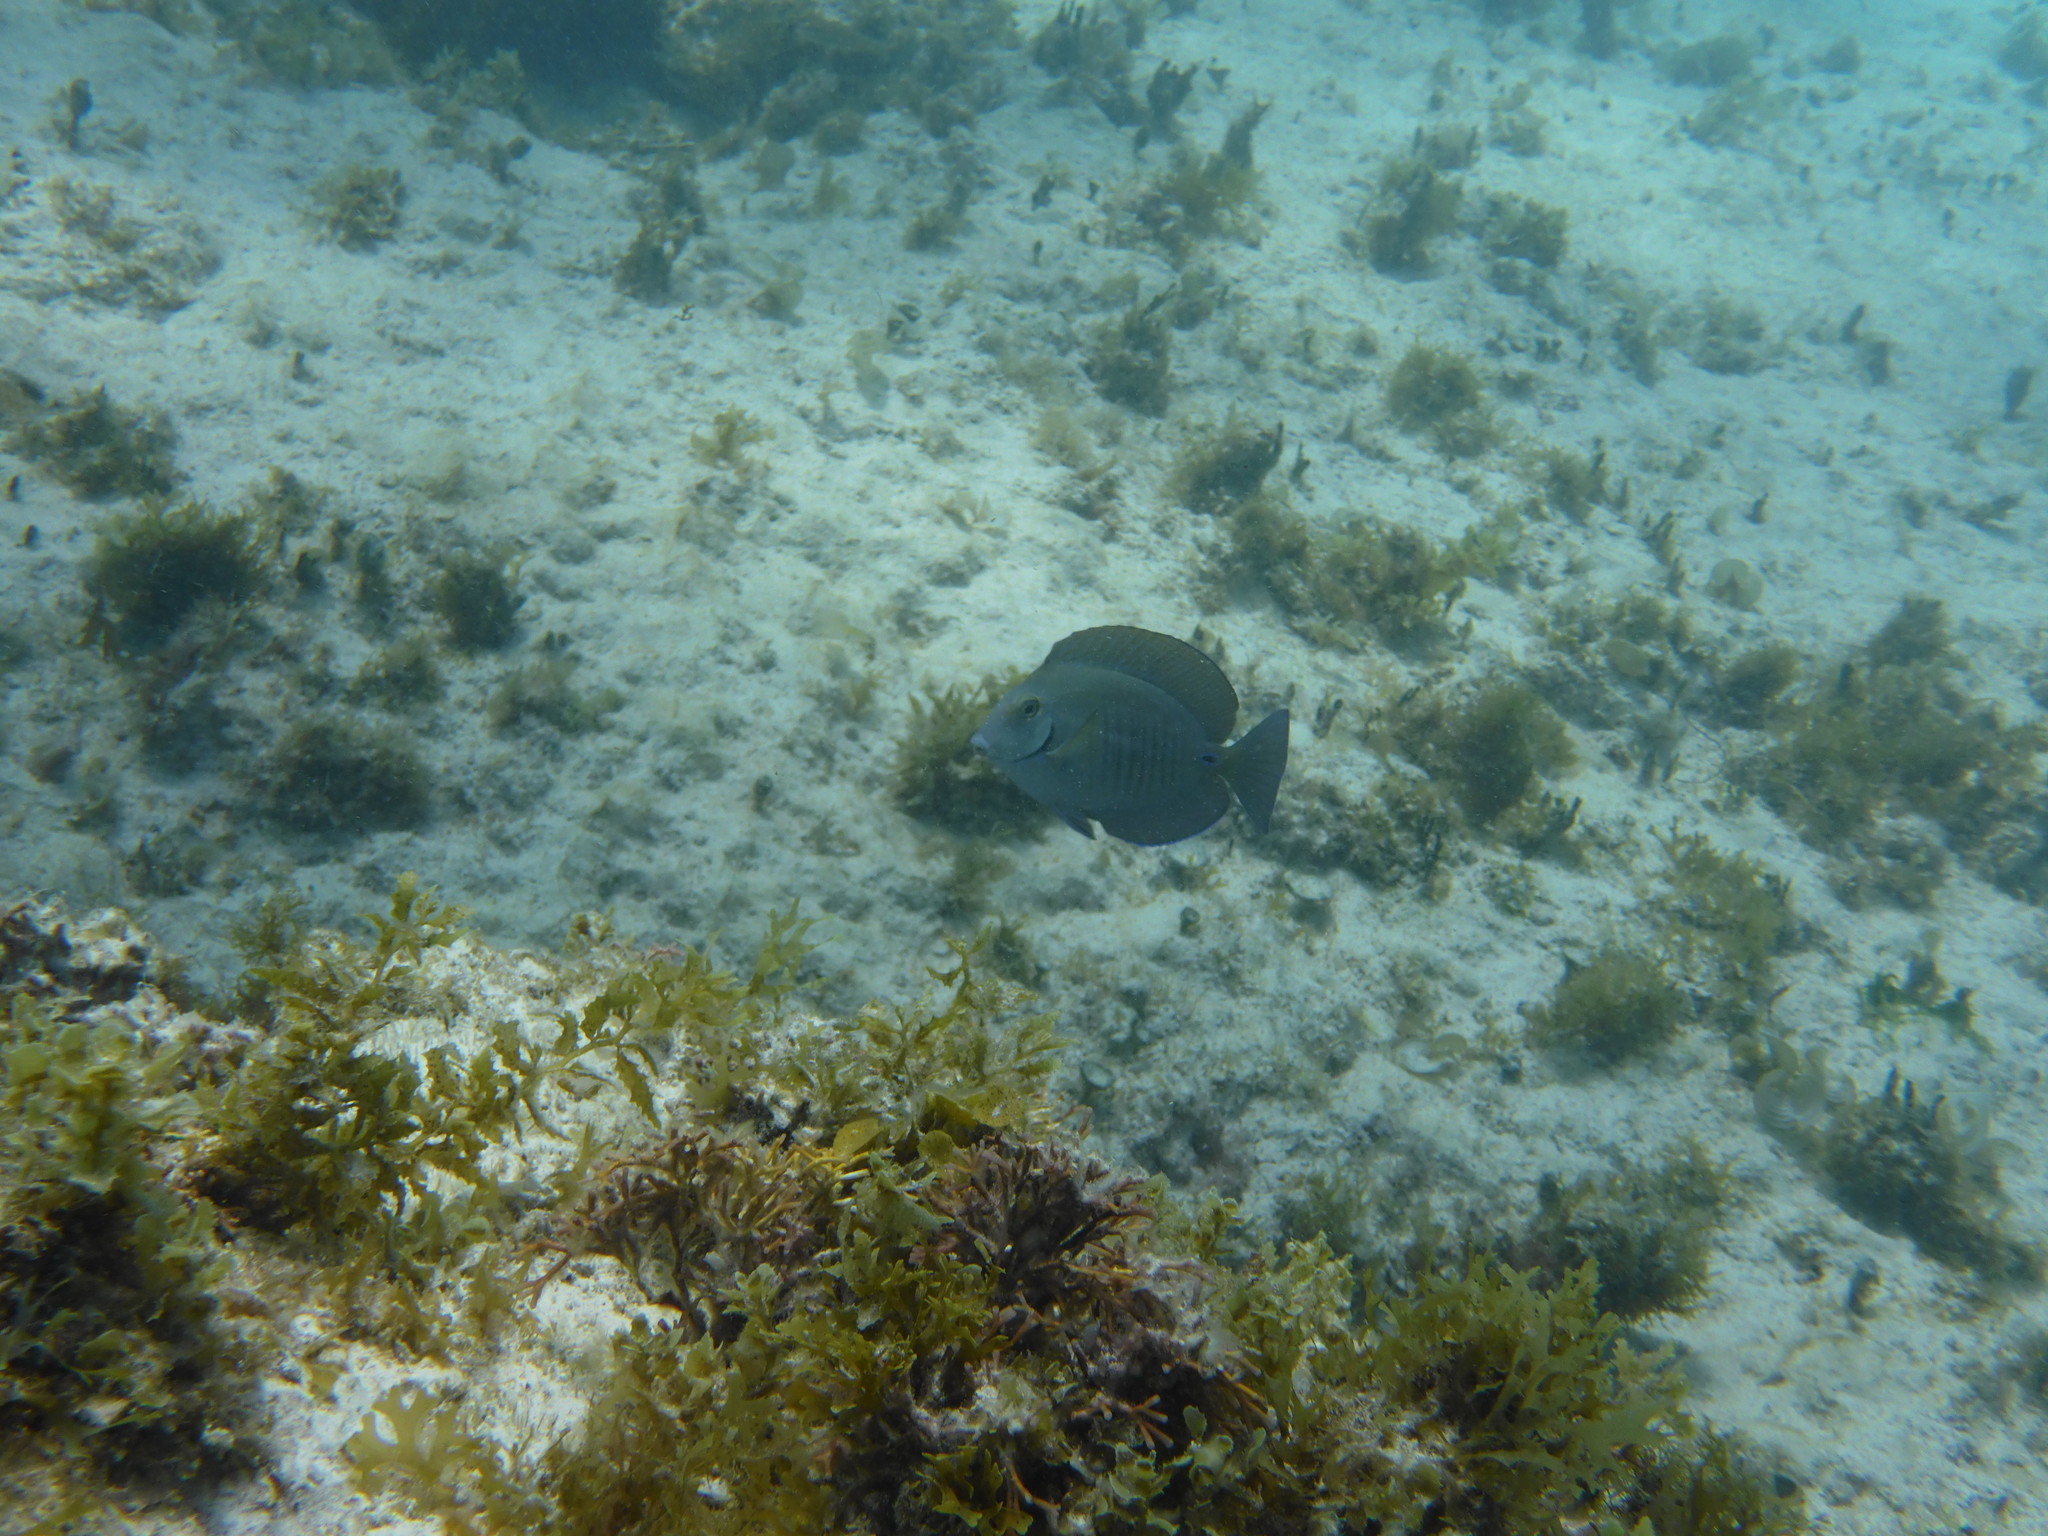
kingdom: Animalia
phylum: Chordata
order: Perciformes
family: Acanthuridae
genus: Acanthurus
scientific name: Acanthurus chirurgus
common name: Doctorfish
